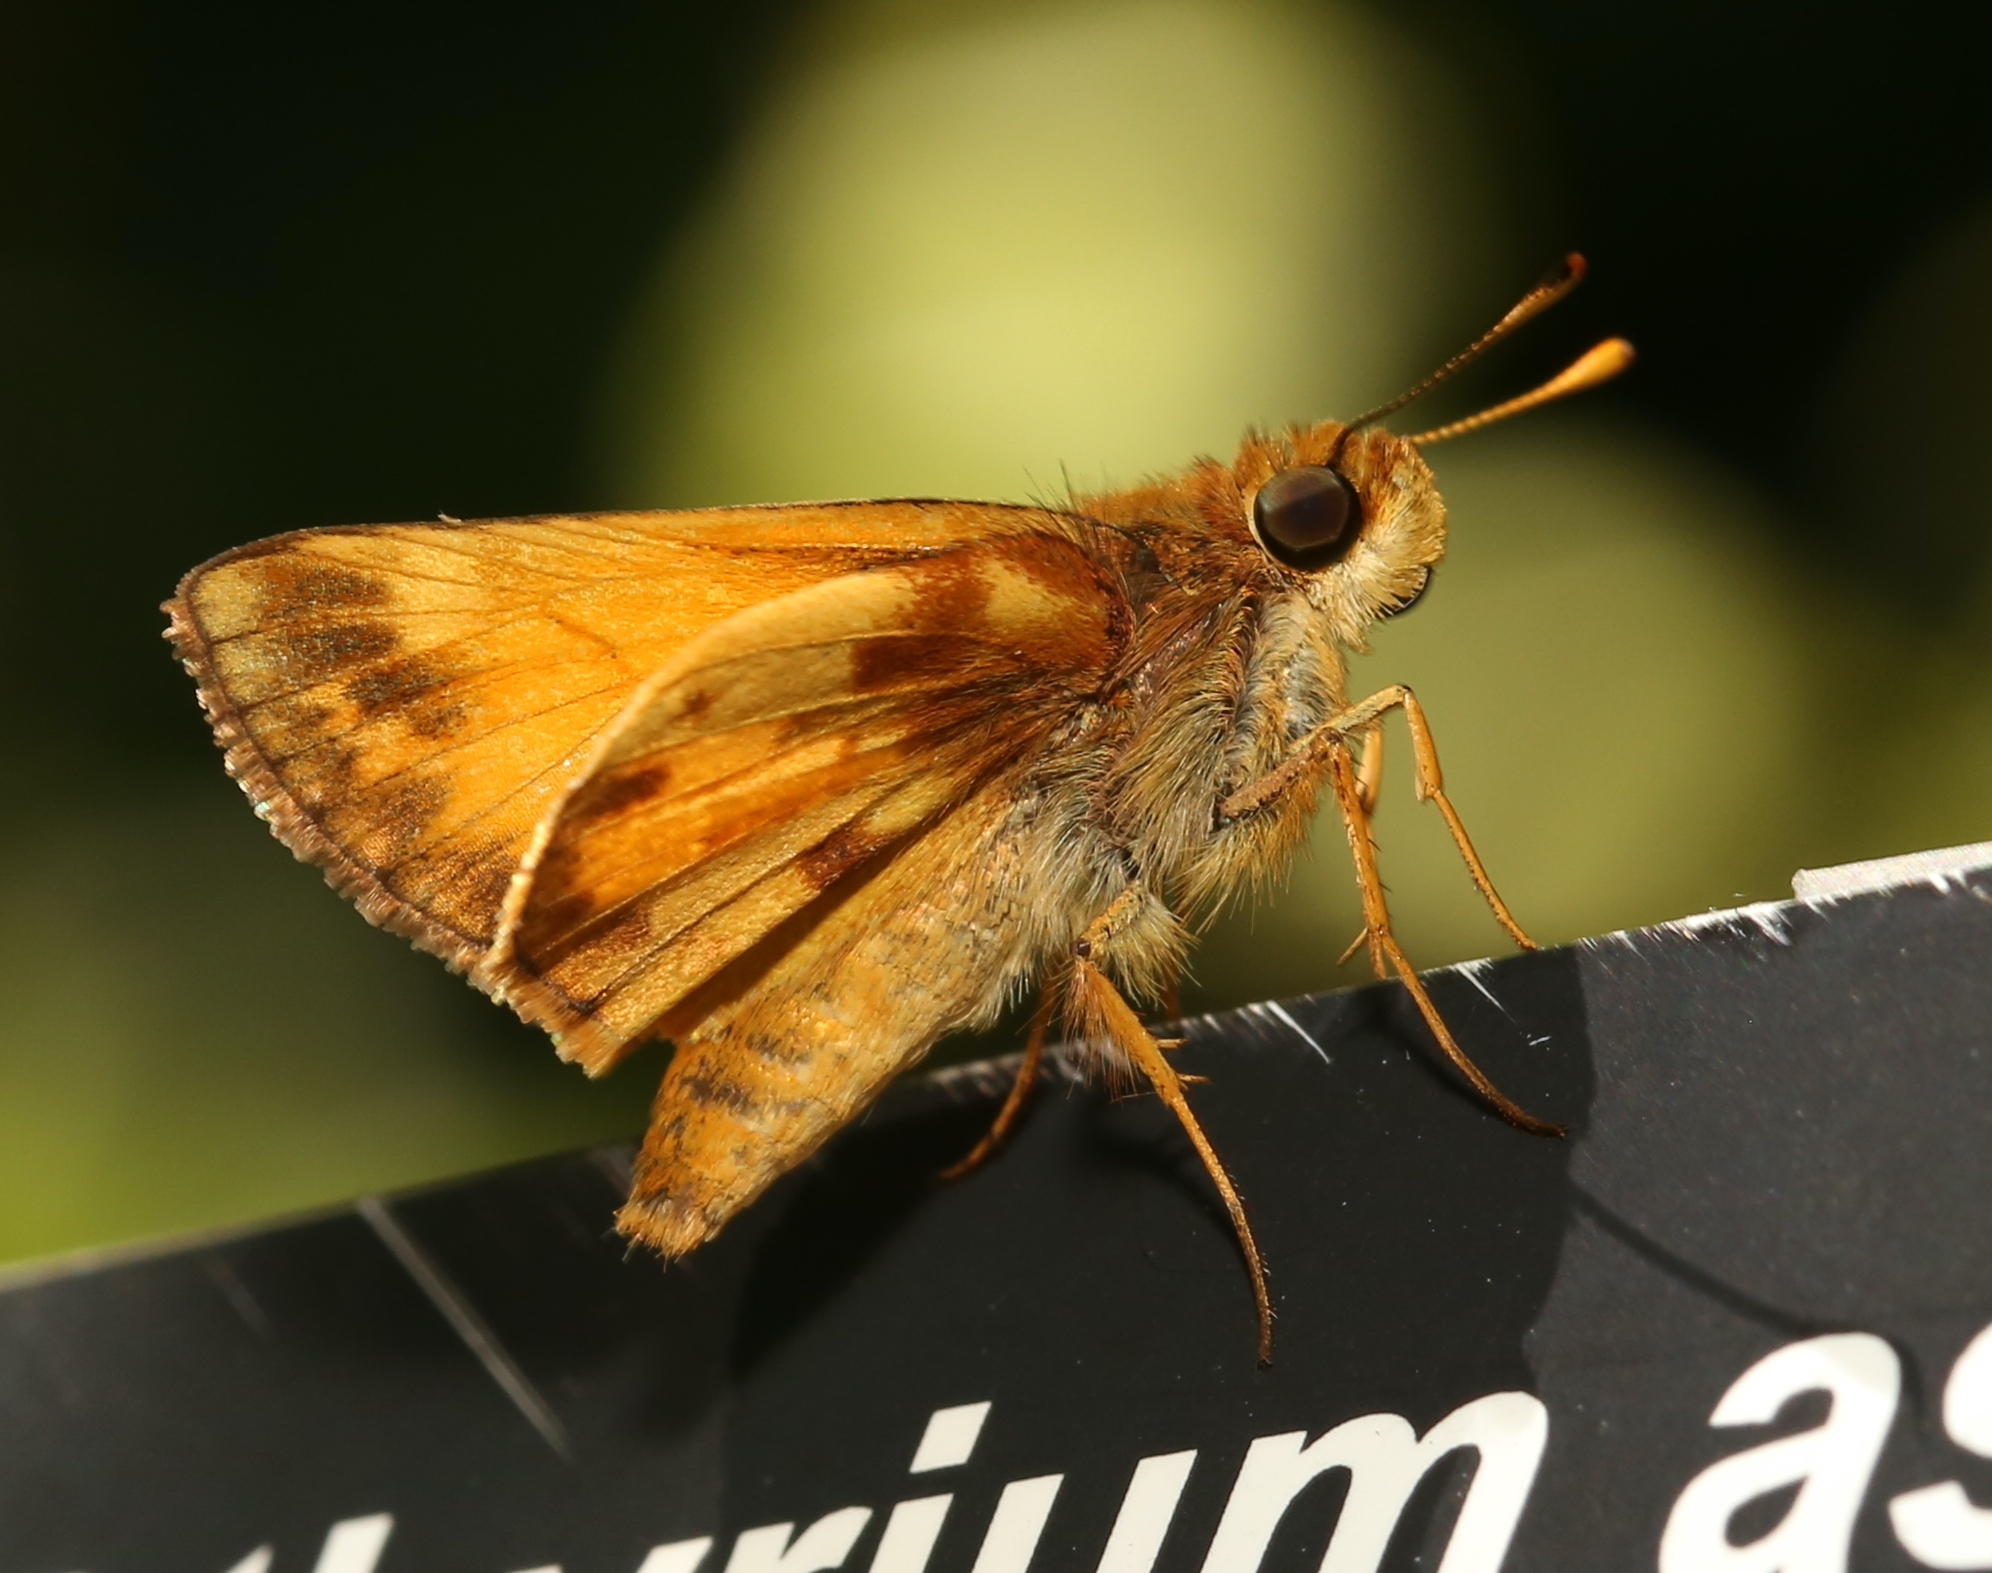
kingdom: Animalia
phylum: Arthropoda
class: Insecta
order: Lepidoptera
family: Hesperiidae
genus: Lon
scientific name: Lon zabulon
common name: Zabulon skipper
